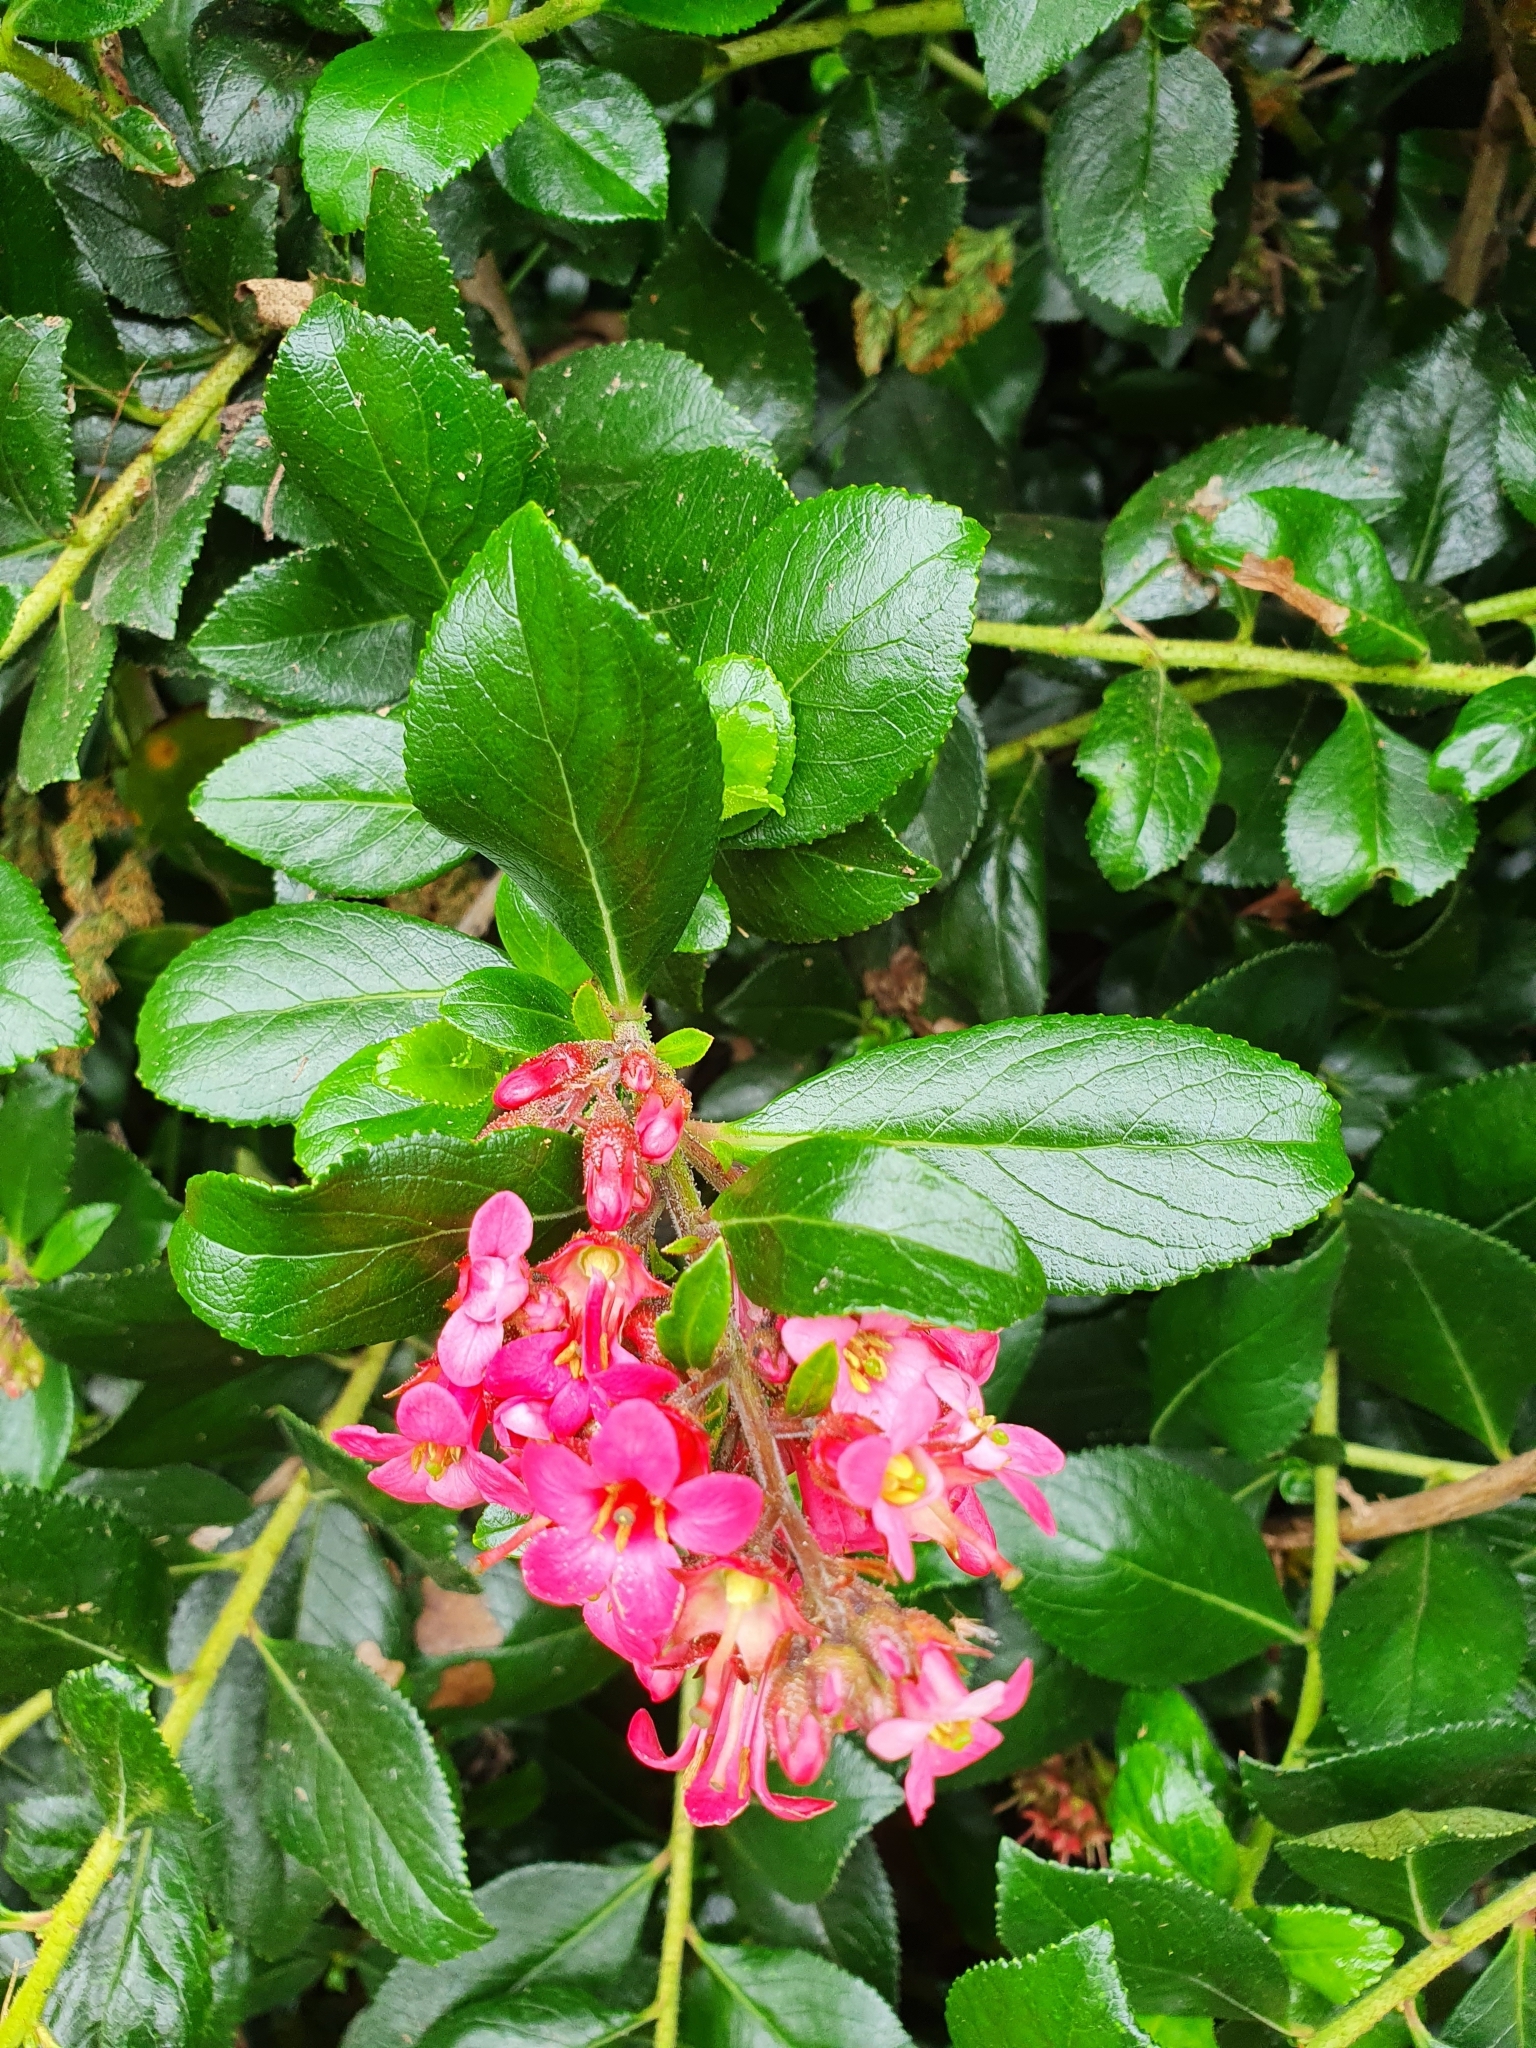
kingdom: Plantae
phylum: Tracheophyta
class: Magnoliopsida
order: Escalloniales
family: Escalloniaceae
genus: Escallonia
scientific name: Escallonia rubra
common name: Redclaws
